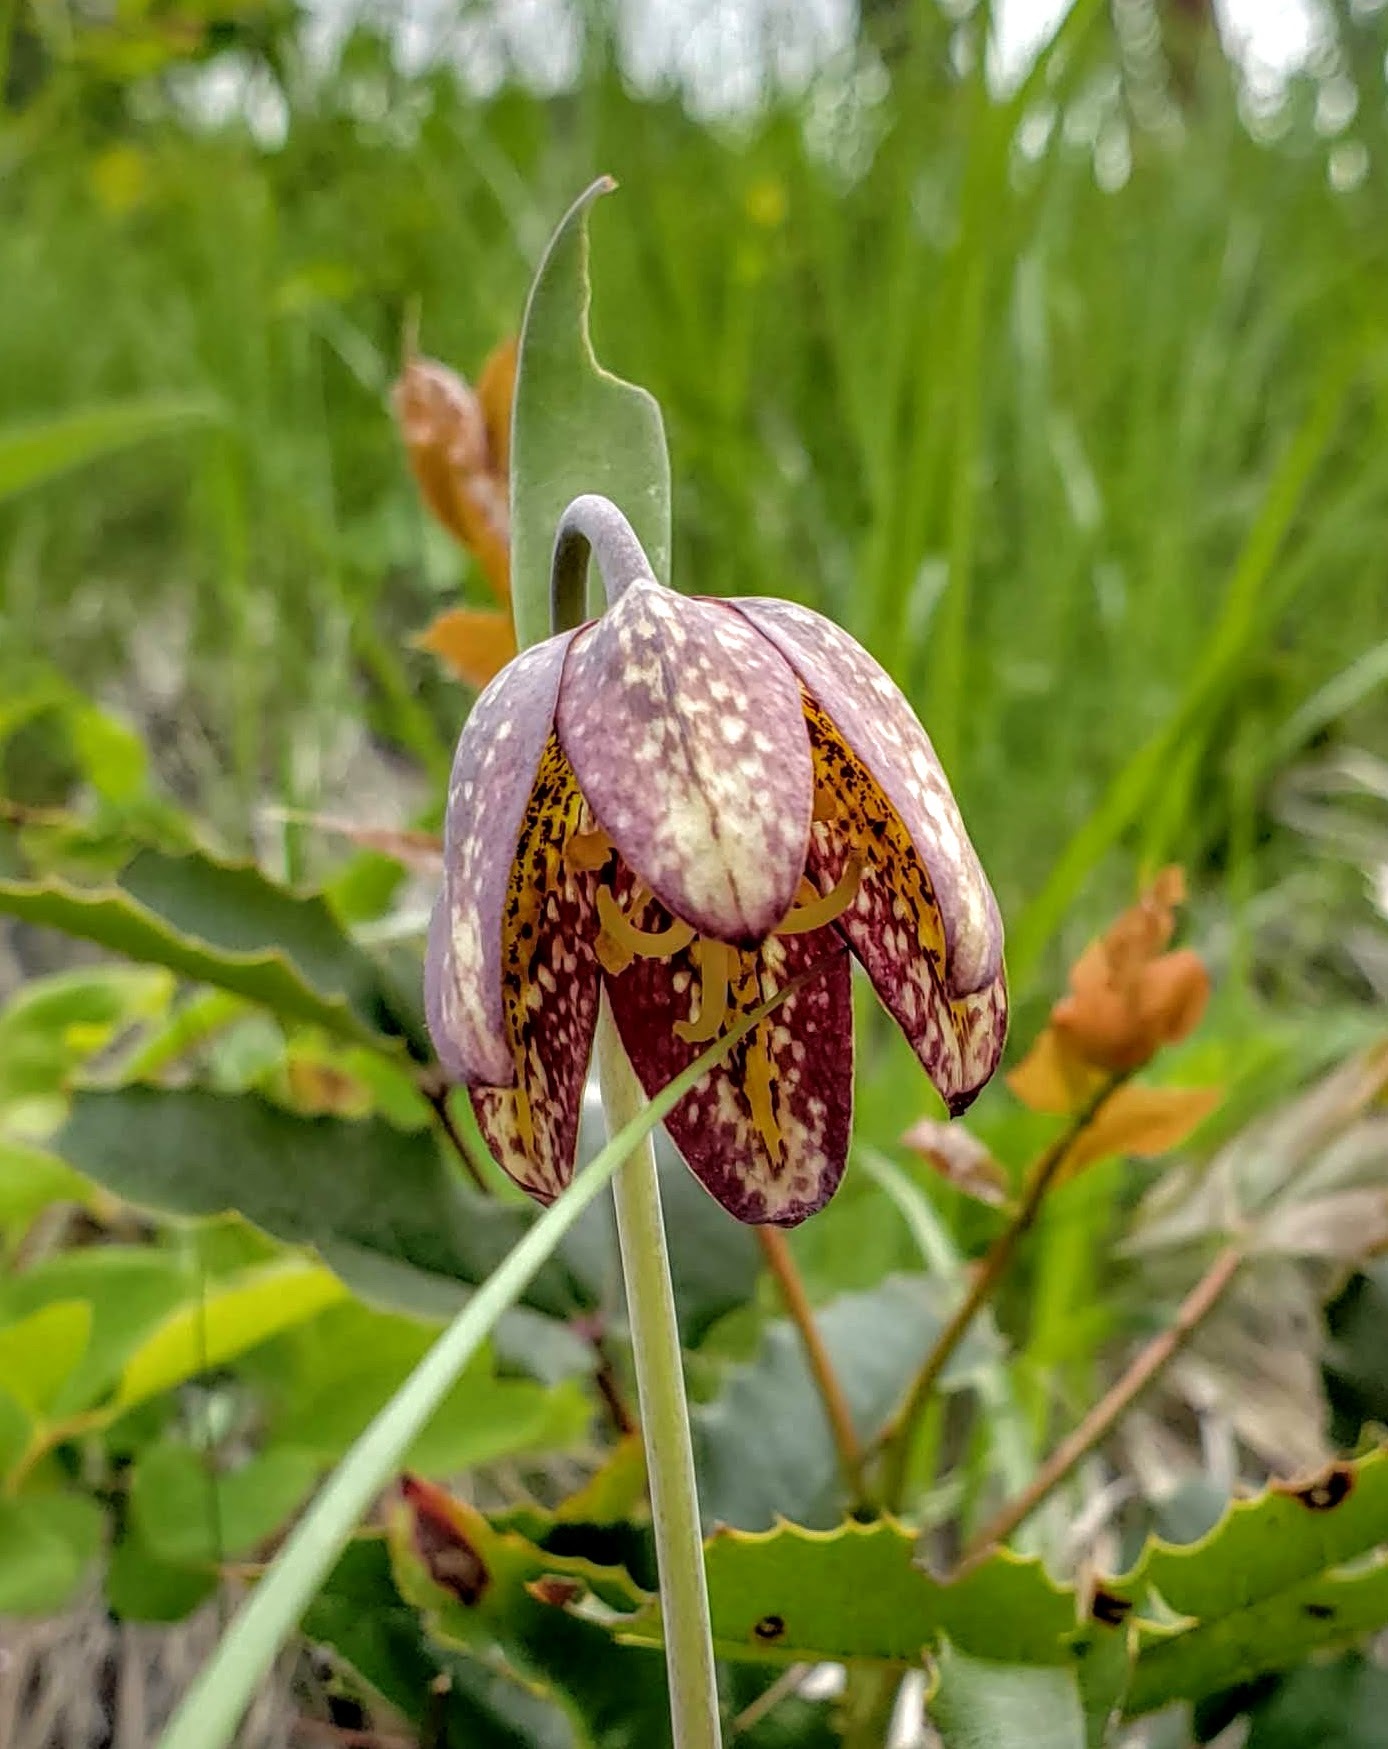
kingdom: Plantae
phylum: Tracheophyta
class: Liliopsida
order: Liliales
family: Liliaceae
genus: Fritillaria
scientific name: Fritillaria affinis
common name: Ojai fritillary
